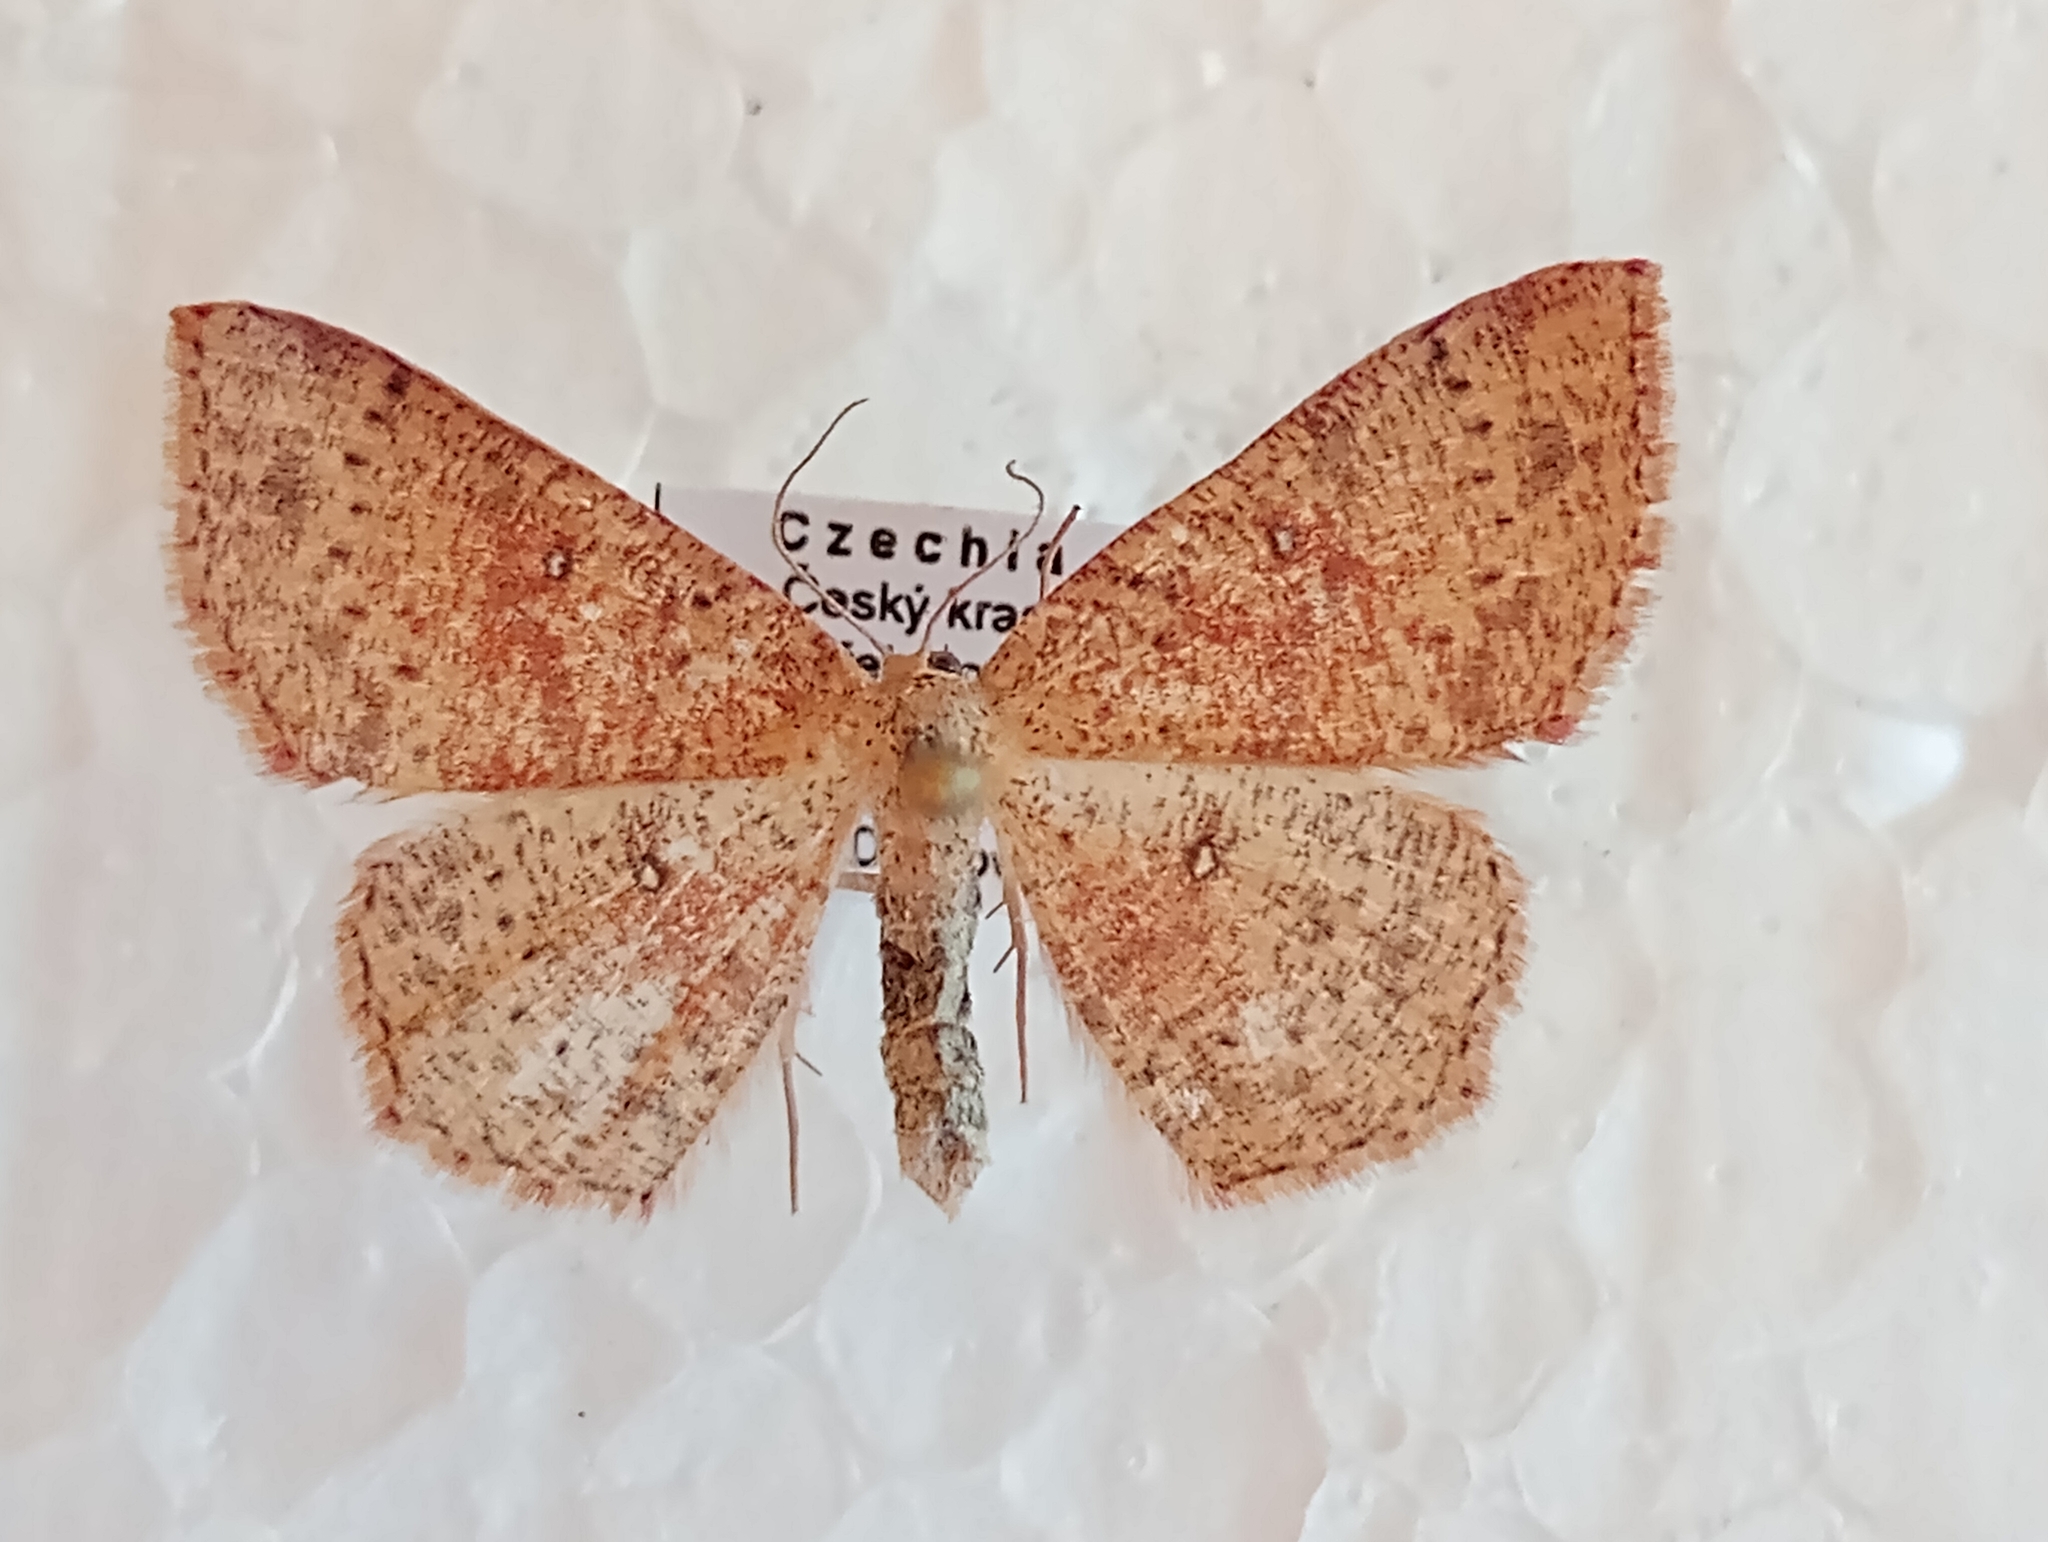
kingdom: Animalia
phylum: Arthropoda
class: Insecta
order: Lepidoptera
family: Geometridae
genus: Cyclophora
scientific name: Cyclophora porata
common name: False mocha
